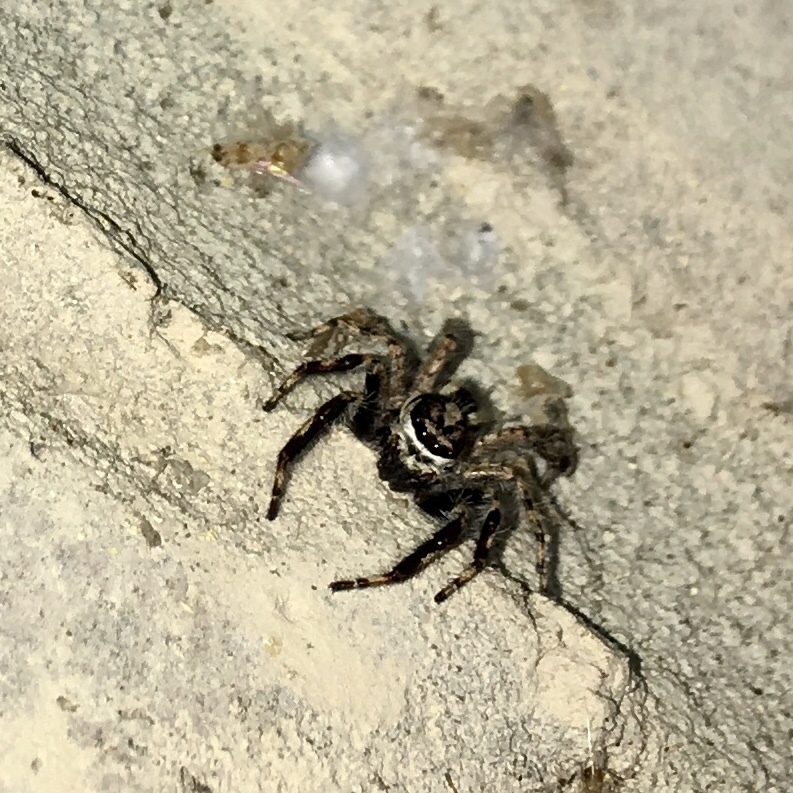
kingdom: Animalia
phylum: Arthropoda
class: Arachnida
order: Araneae
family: Salticidae
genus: Menemerus
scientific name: Menemerus bivittatus
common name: Gray wall jumper
